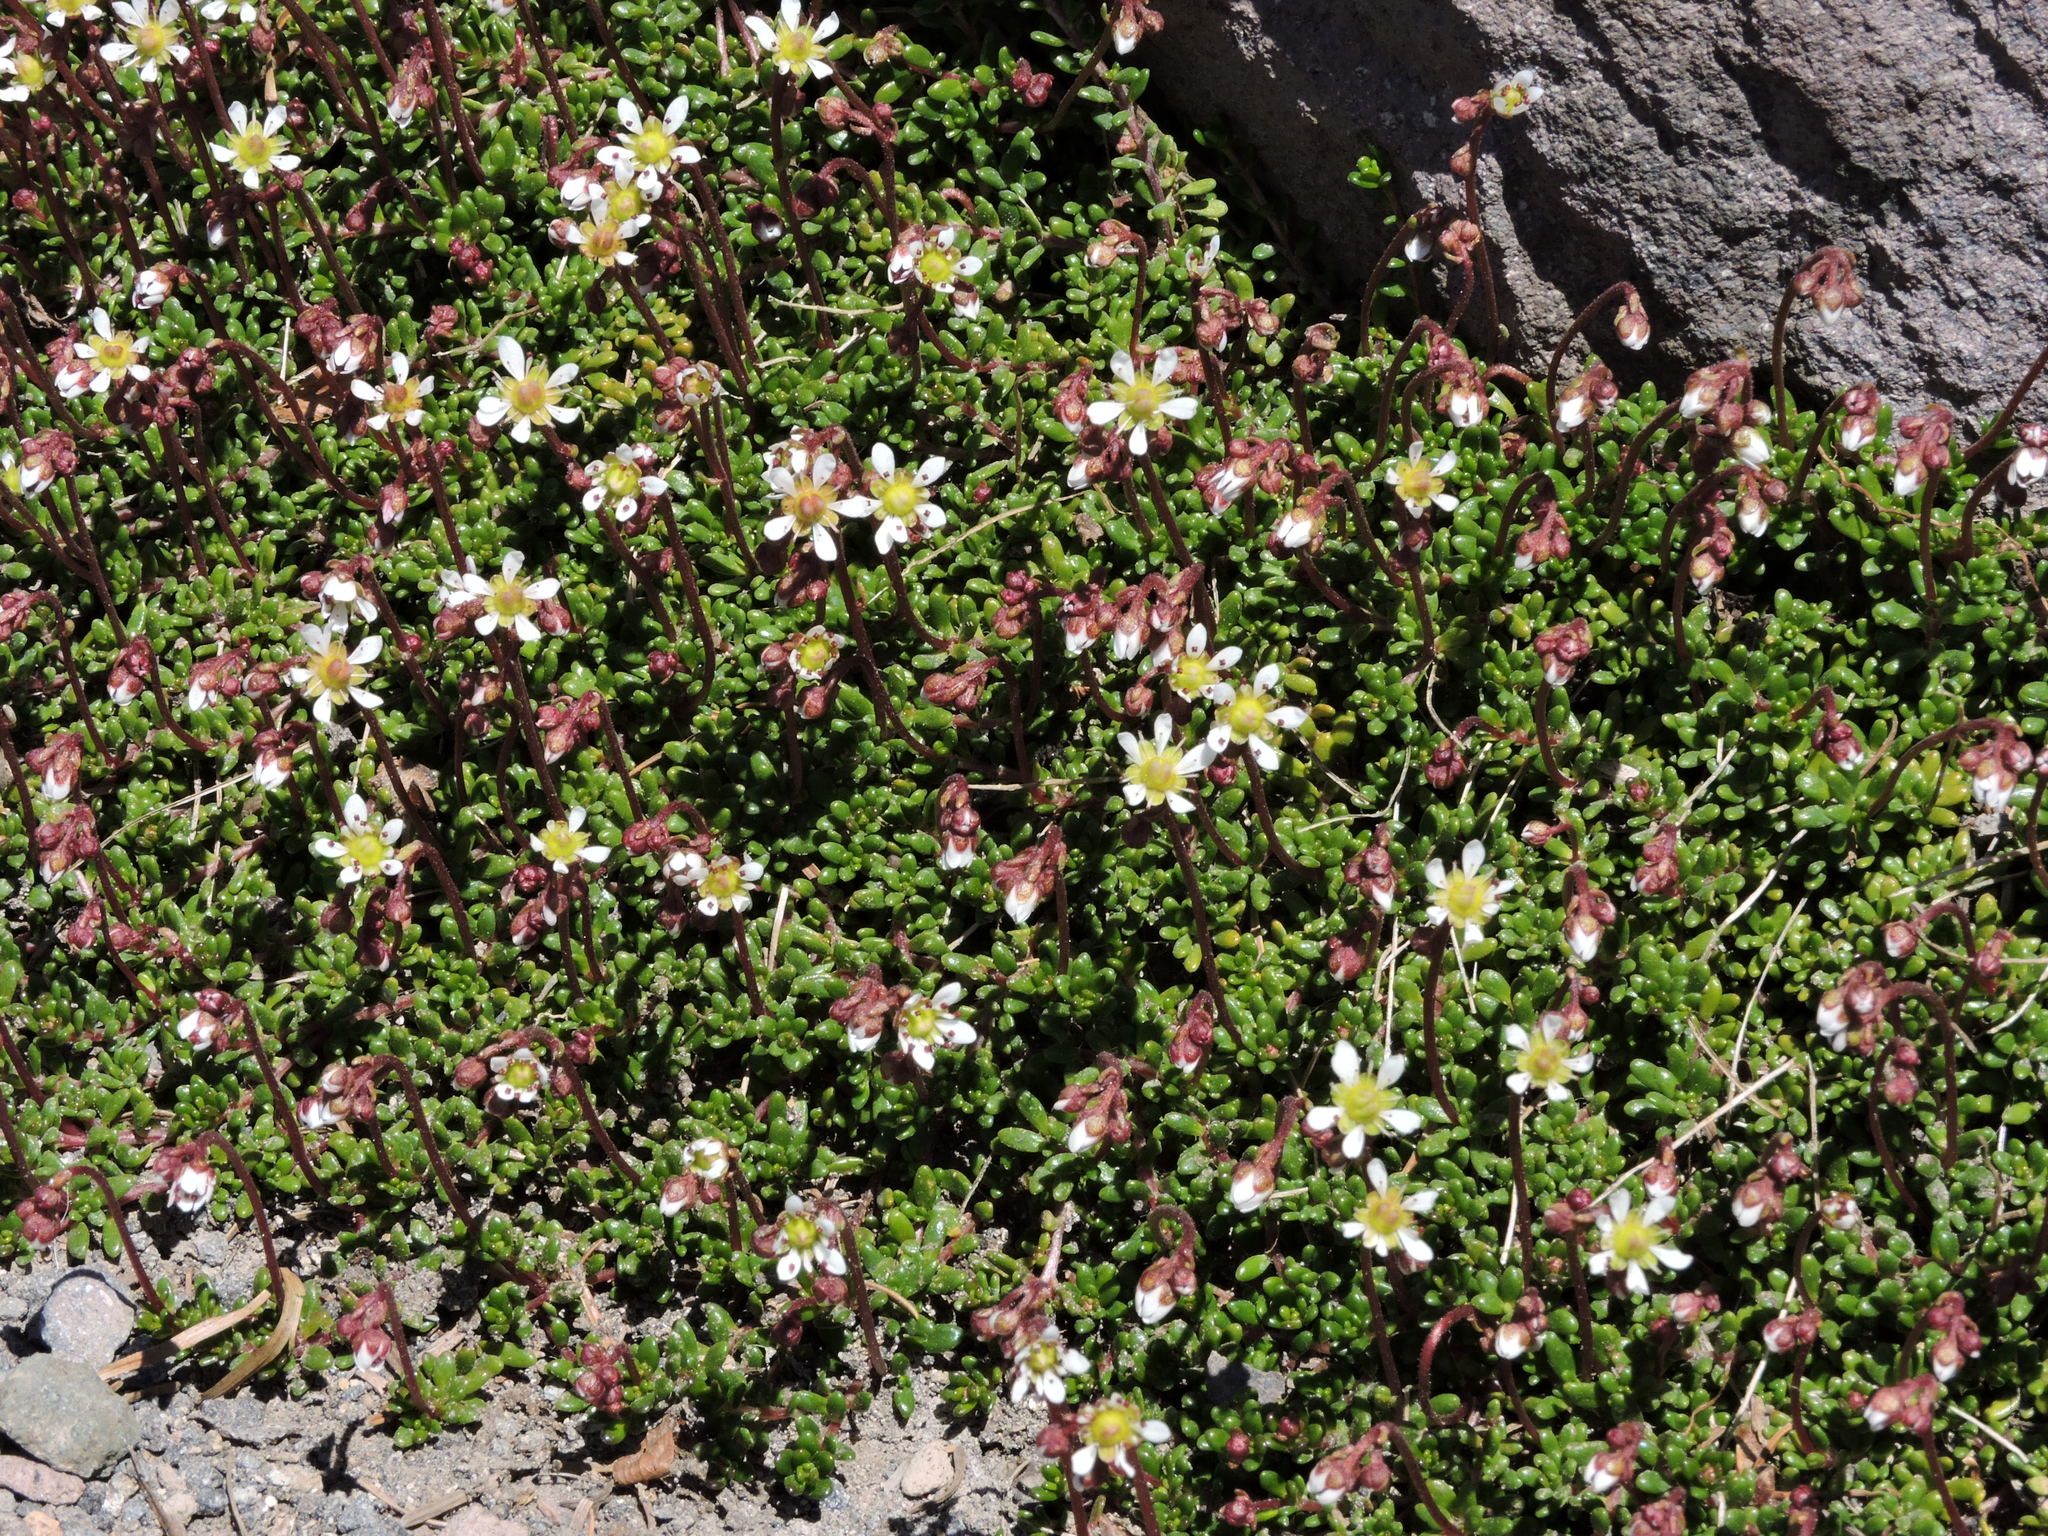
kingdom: Plantae
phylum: Tracheophyta
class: Magnoliopsida
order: Saxifragales
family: Saxifragaceae
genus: Micranthes
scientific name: Micranthes tolmiei
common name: Tolmie's saxifrage
